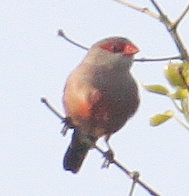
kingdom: Animalia
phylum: Chordata
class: Aves
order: Passeriformes
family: Estrildidae
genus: Estrilda
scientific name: Estrilda astrild
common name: Common waxbill
